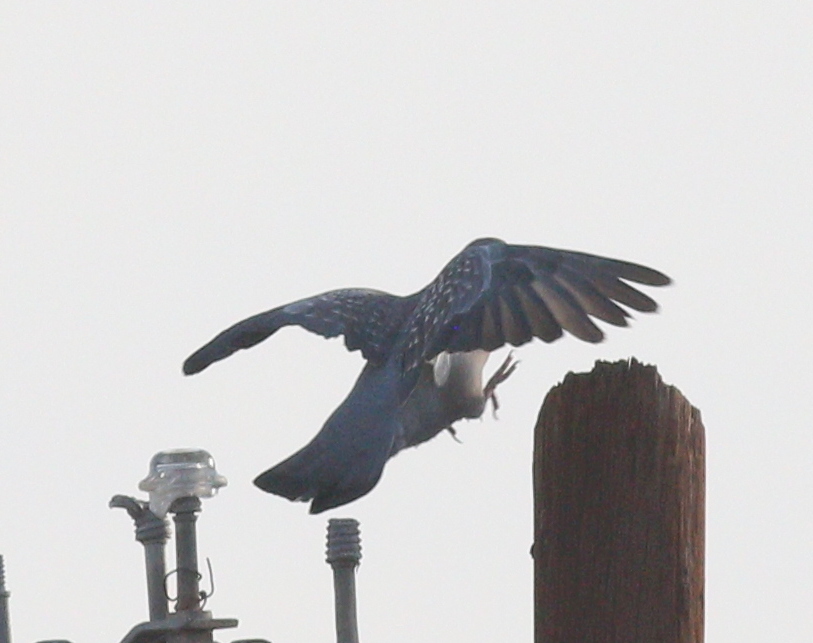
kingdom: Animalia
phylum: Chordata
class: Aves
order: Columbiformes
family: Columbidae
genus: Patagioenas
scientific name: Patagioenas maculosa
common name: Spot-winged pigeon
